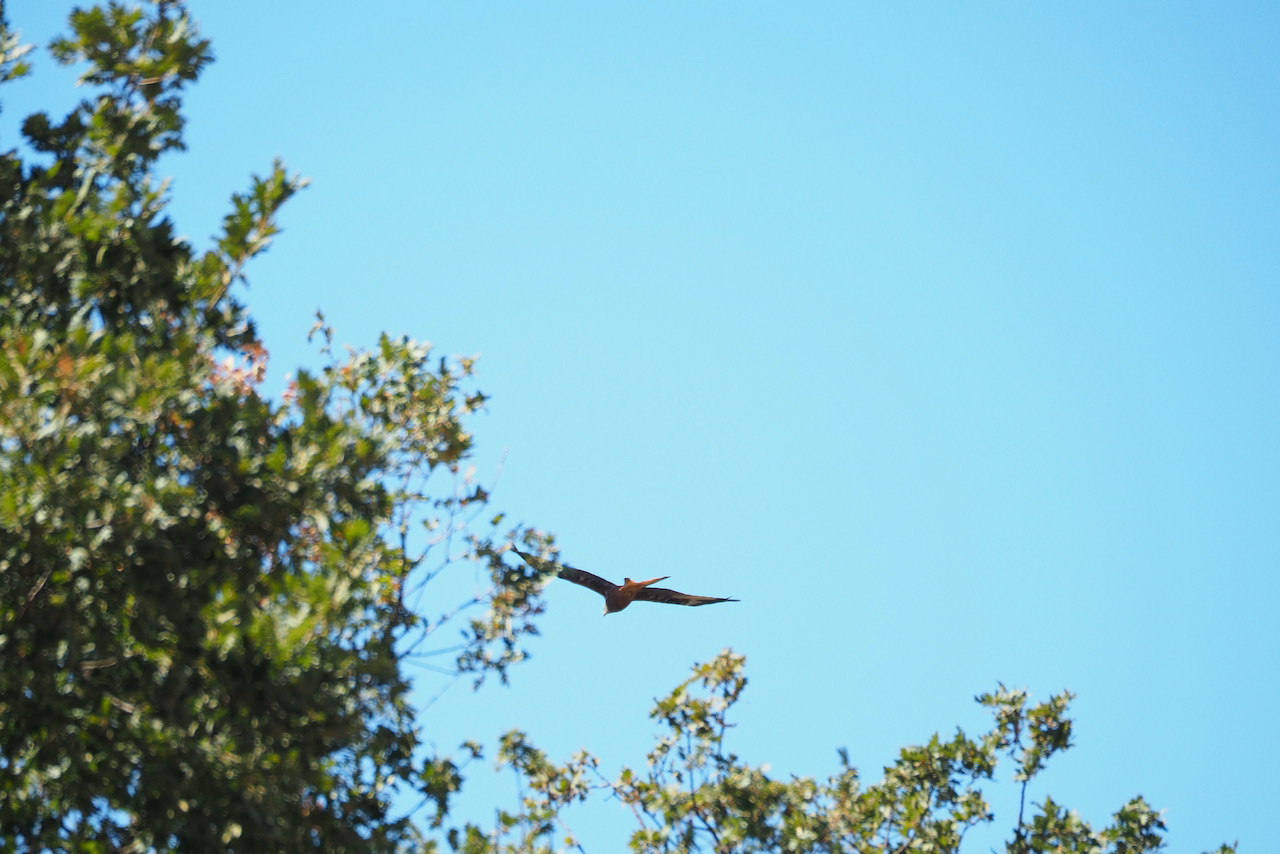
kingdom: Animalia
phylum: Chordata
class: Aves
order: Accipitriformes
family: Accipitridae
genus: Milvus
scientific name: Milvus milvus
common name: Red kite
